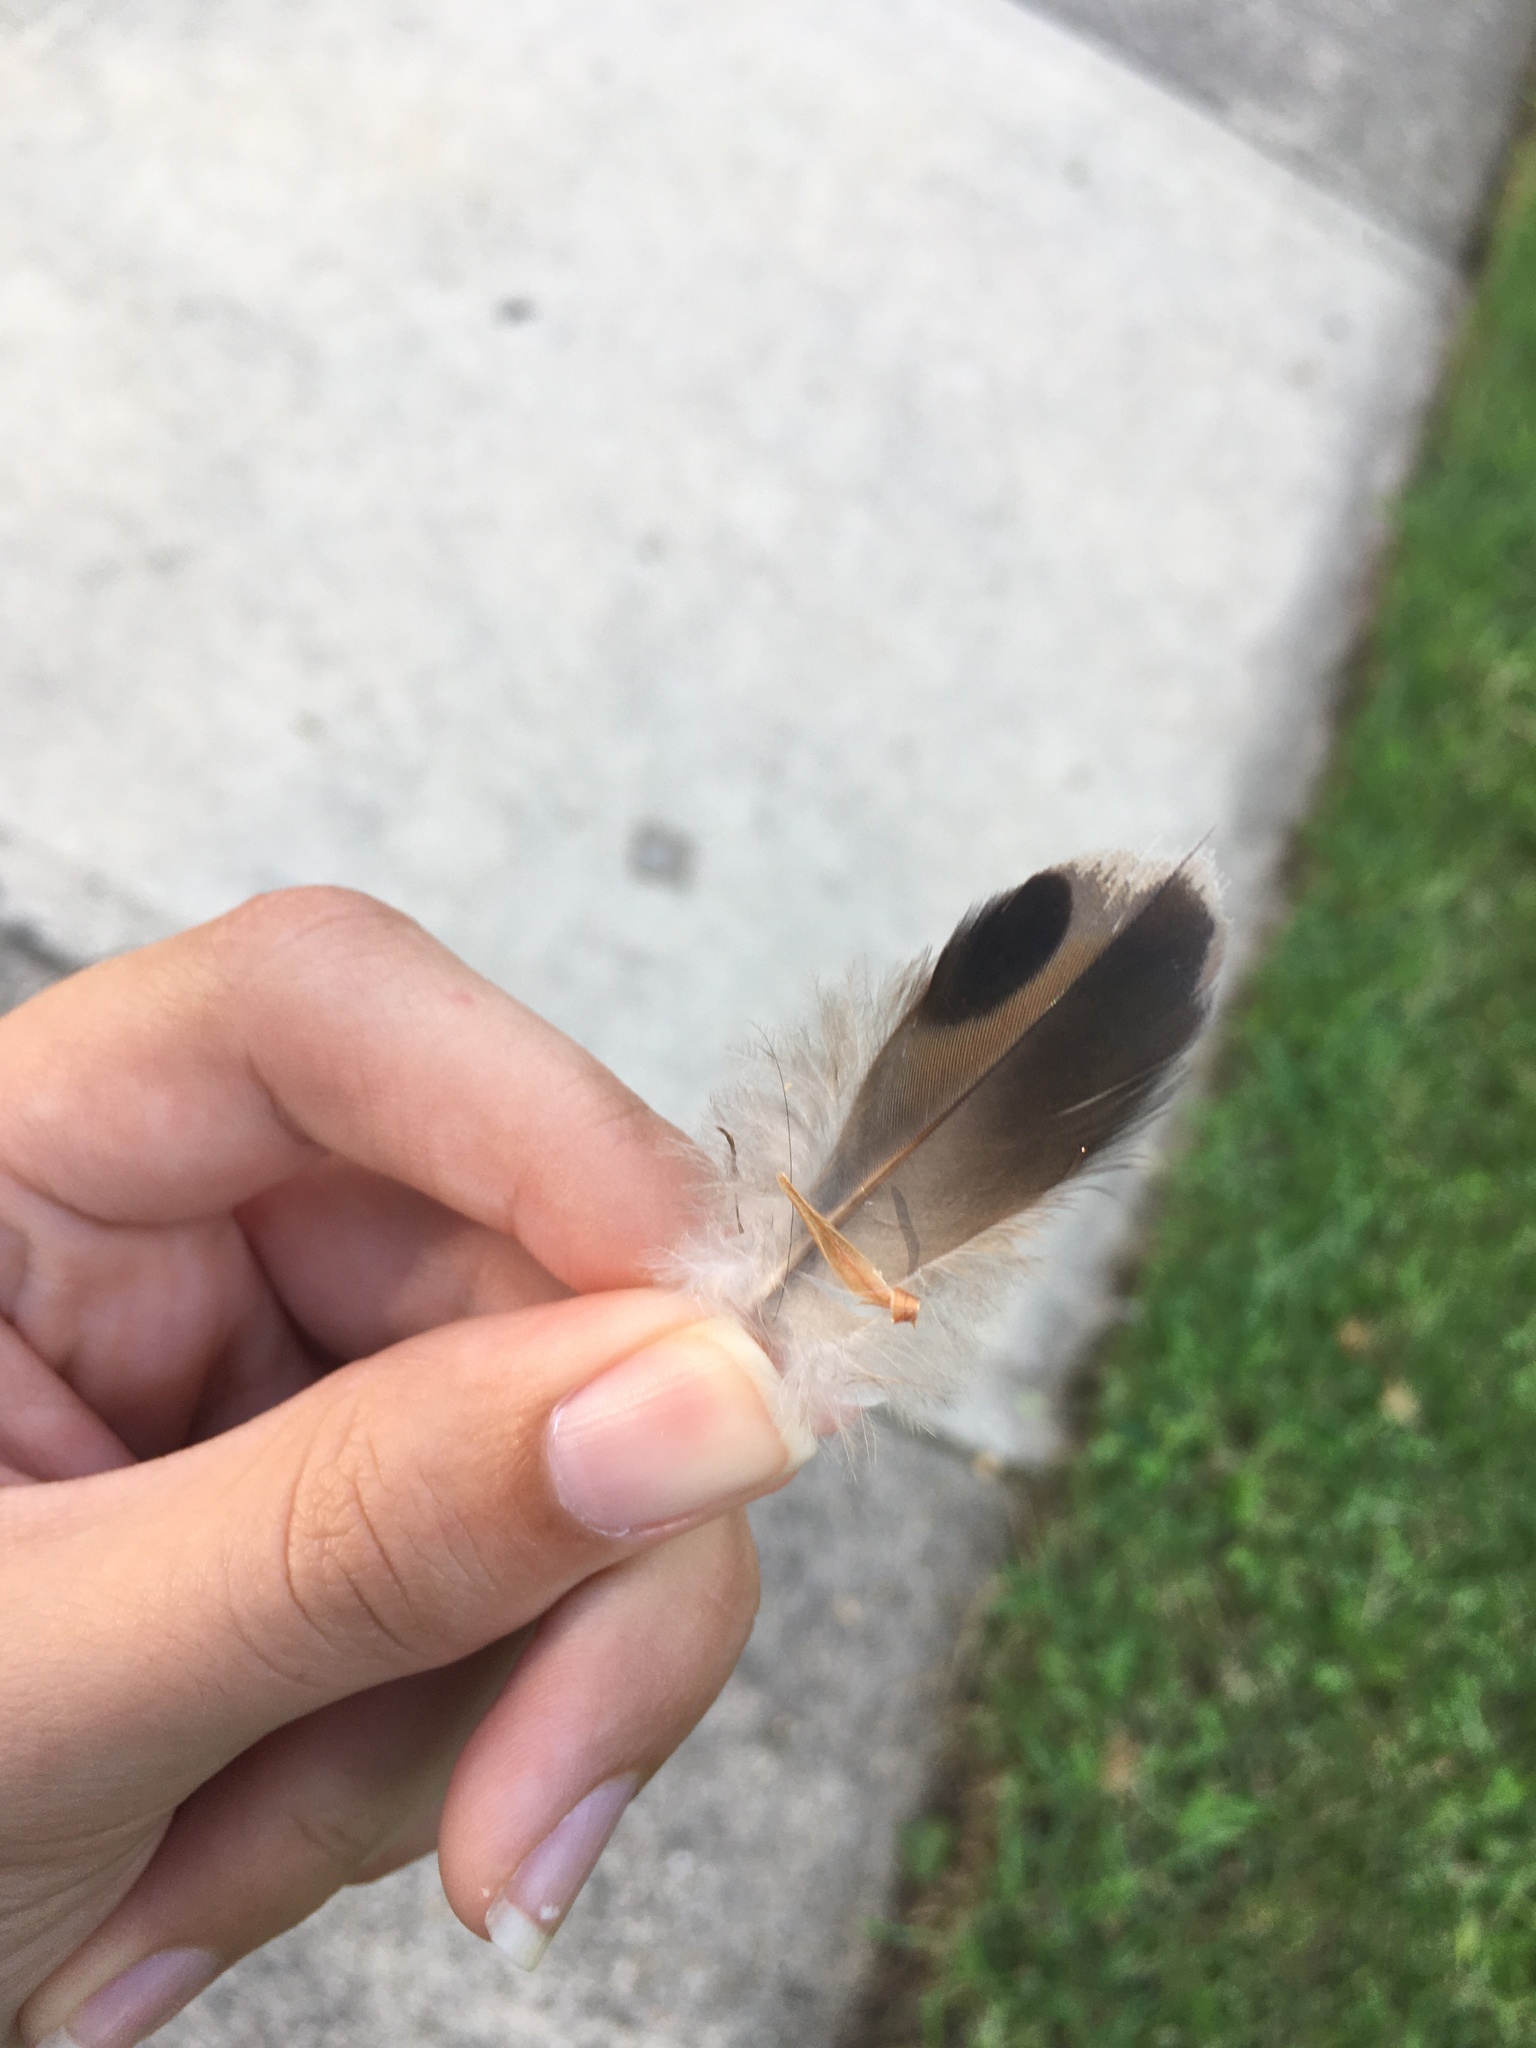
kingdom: Animalia
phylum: Chordata
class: Aves
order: Columbiformes
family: Columbidae
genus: Zenaida
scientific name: Zenaida macroura
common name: Mourning dove
